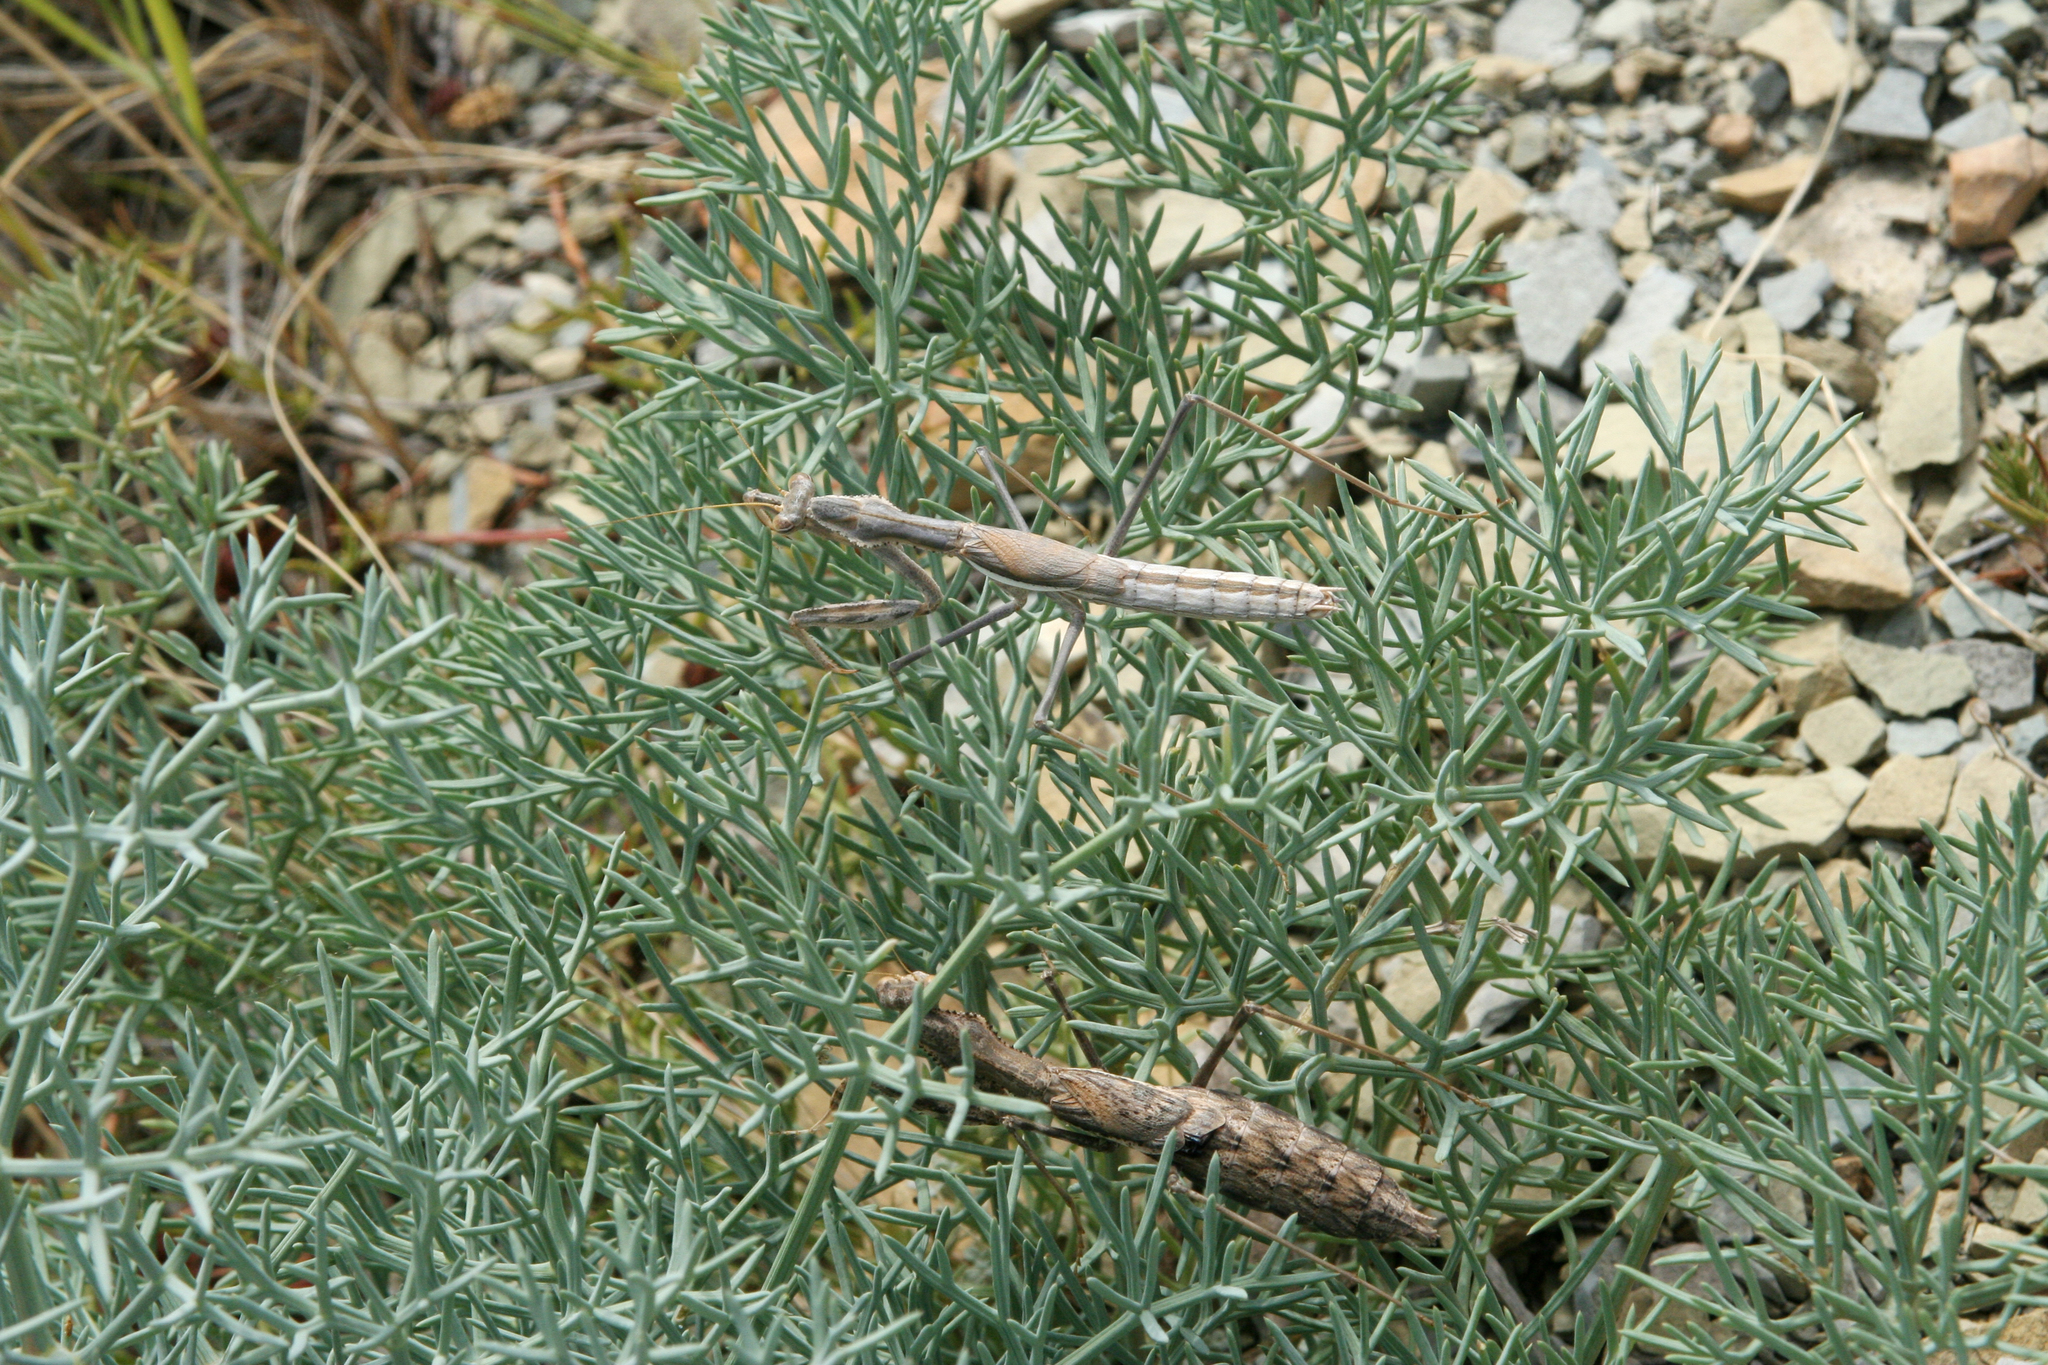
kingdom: Animalia
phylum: Arthropoda
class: Insecta
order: Mantodea
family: Rivetinidae
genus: Bolivaria
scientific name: Bolivaria brachyptera
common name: Bolivar's short winged mantis
